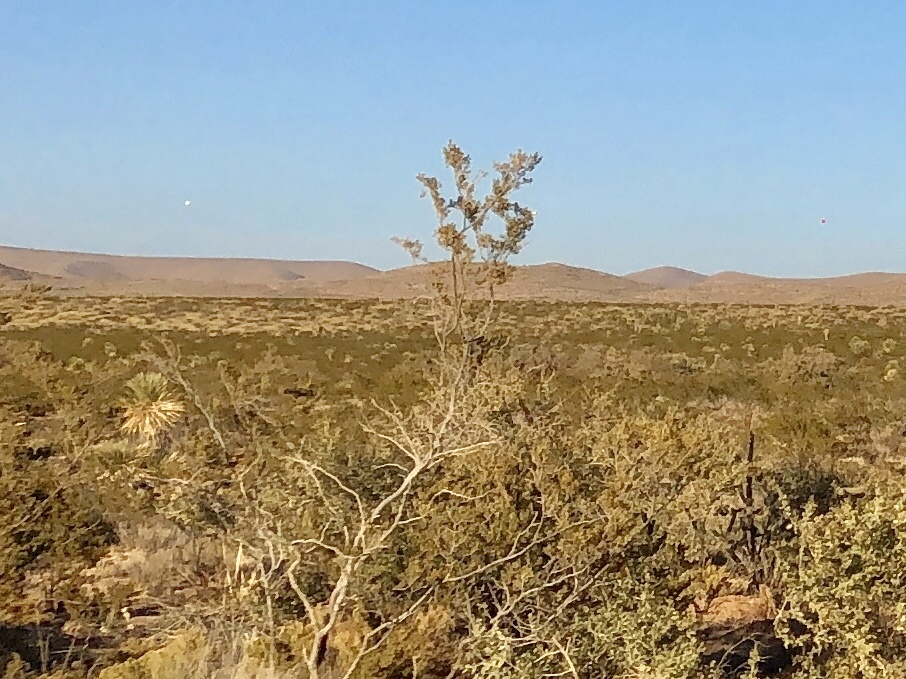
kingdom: Plantae
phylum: Tracheophyta
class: Magnoliopsida
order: Zygophyllales
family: Zygophyllaceae
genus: Larrea
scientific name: Larrea tridentata
